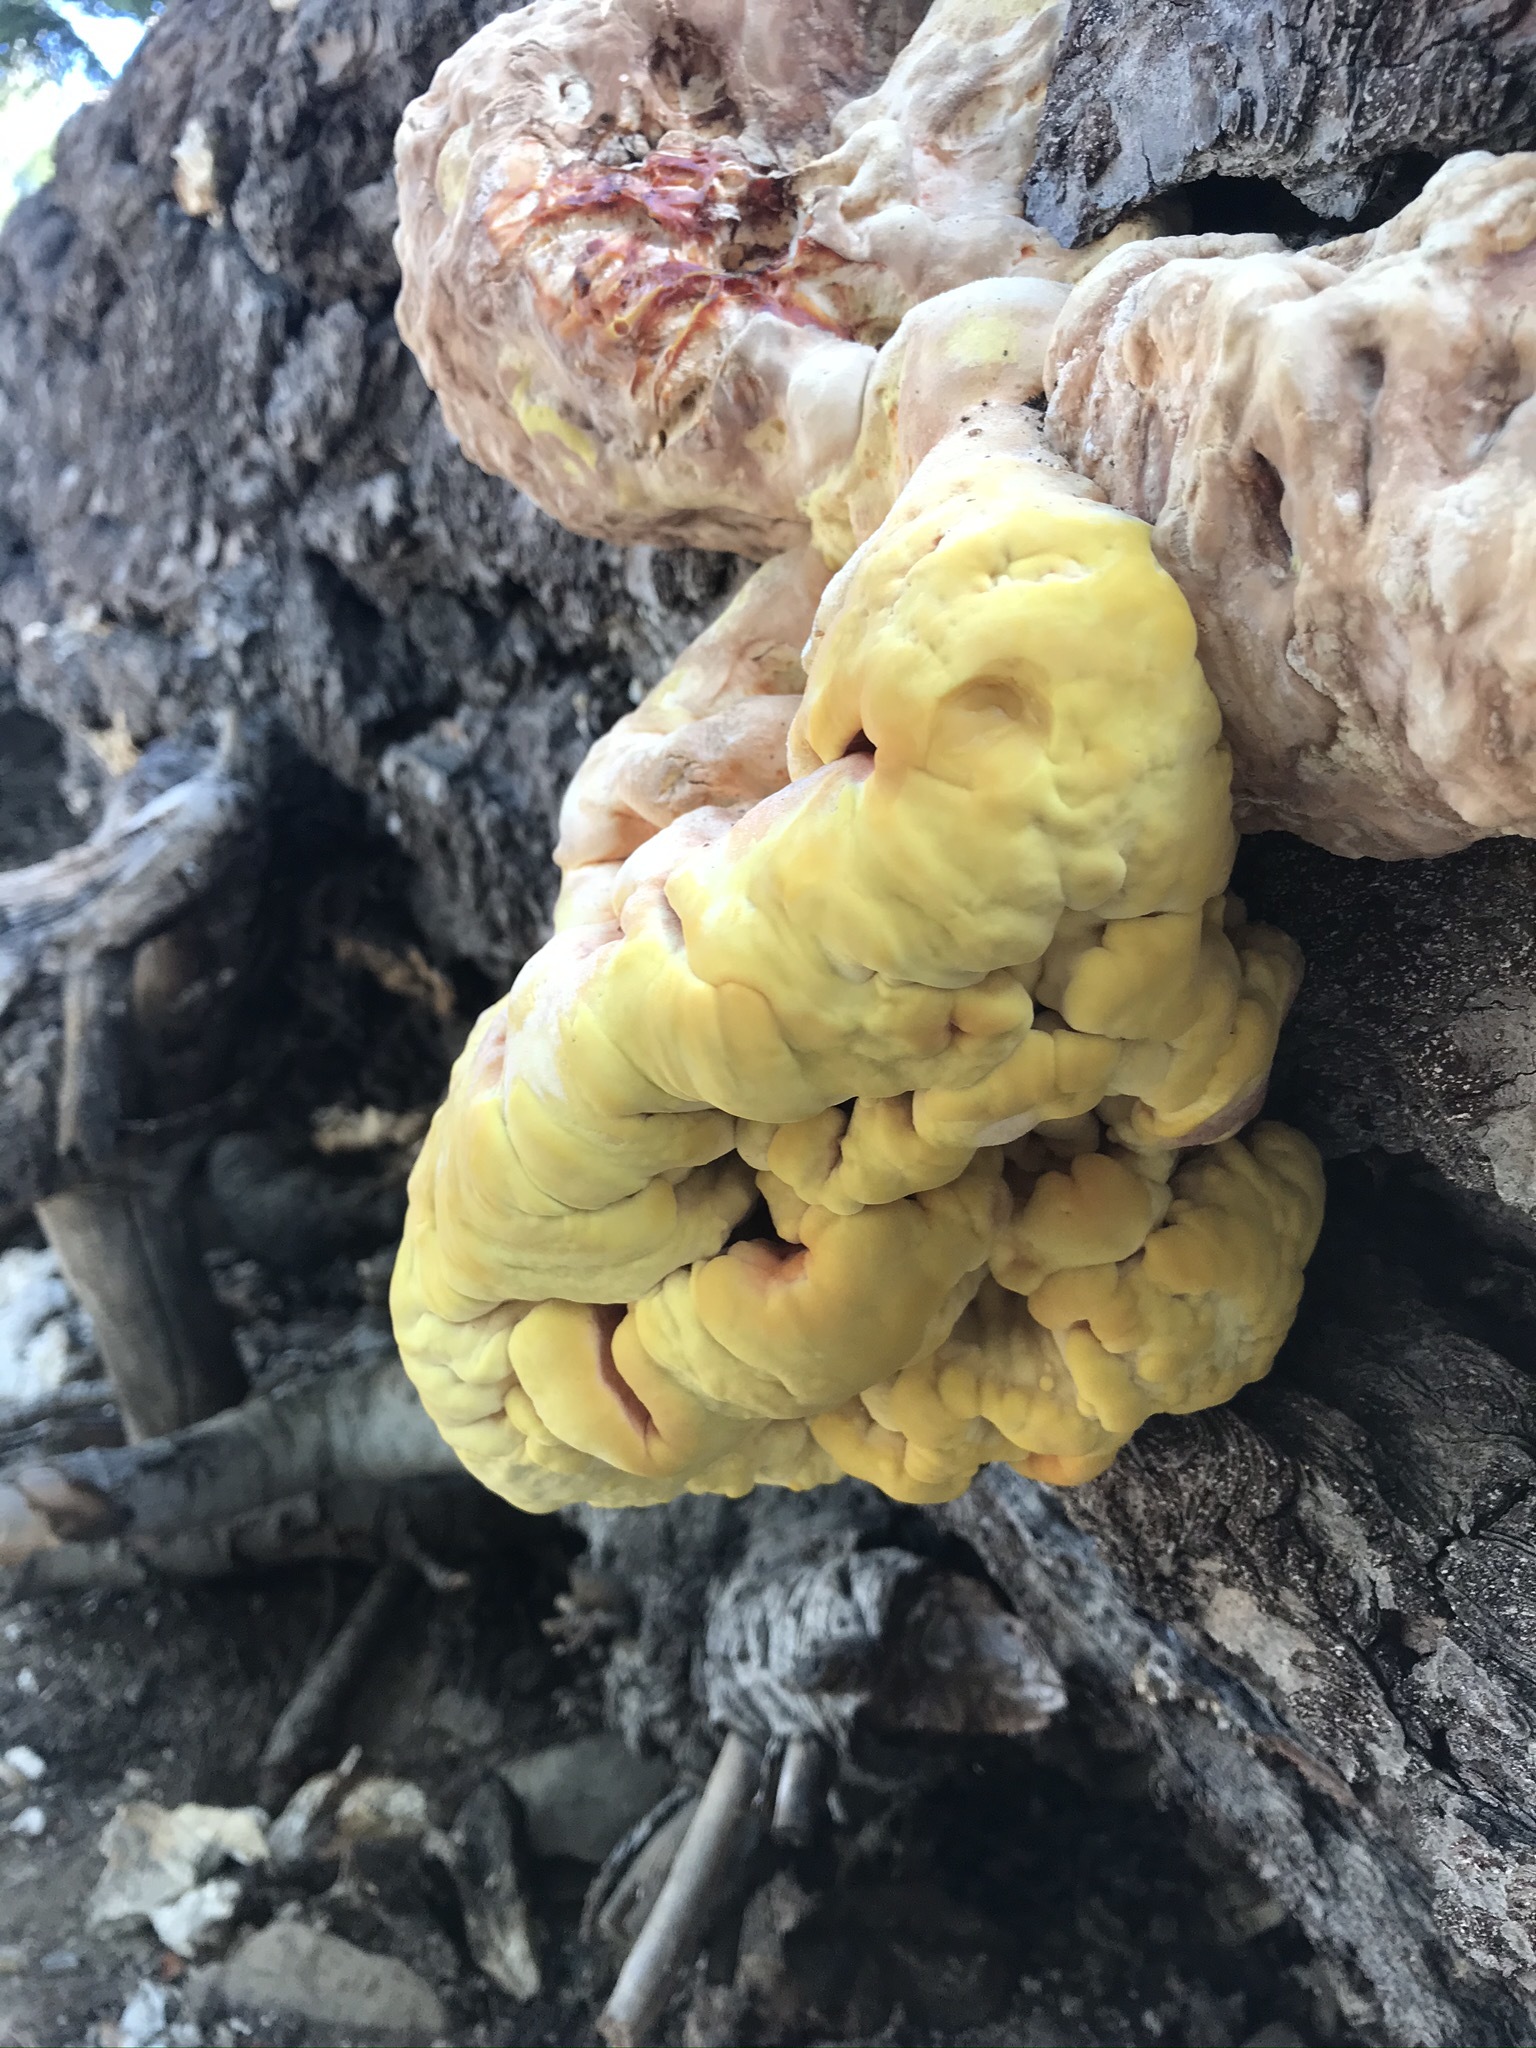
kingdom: Fungi
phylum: Basidiomycota
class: Agaricomycetes
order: Polyporales
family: Laetiporaceae
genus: Laetiporus
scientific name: Laetiporus conifericola
